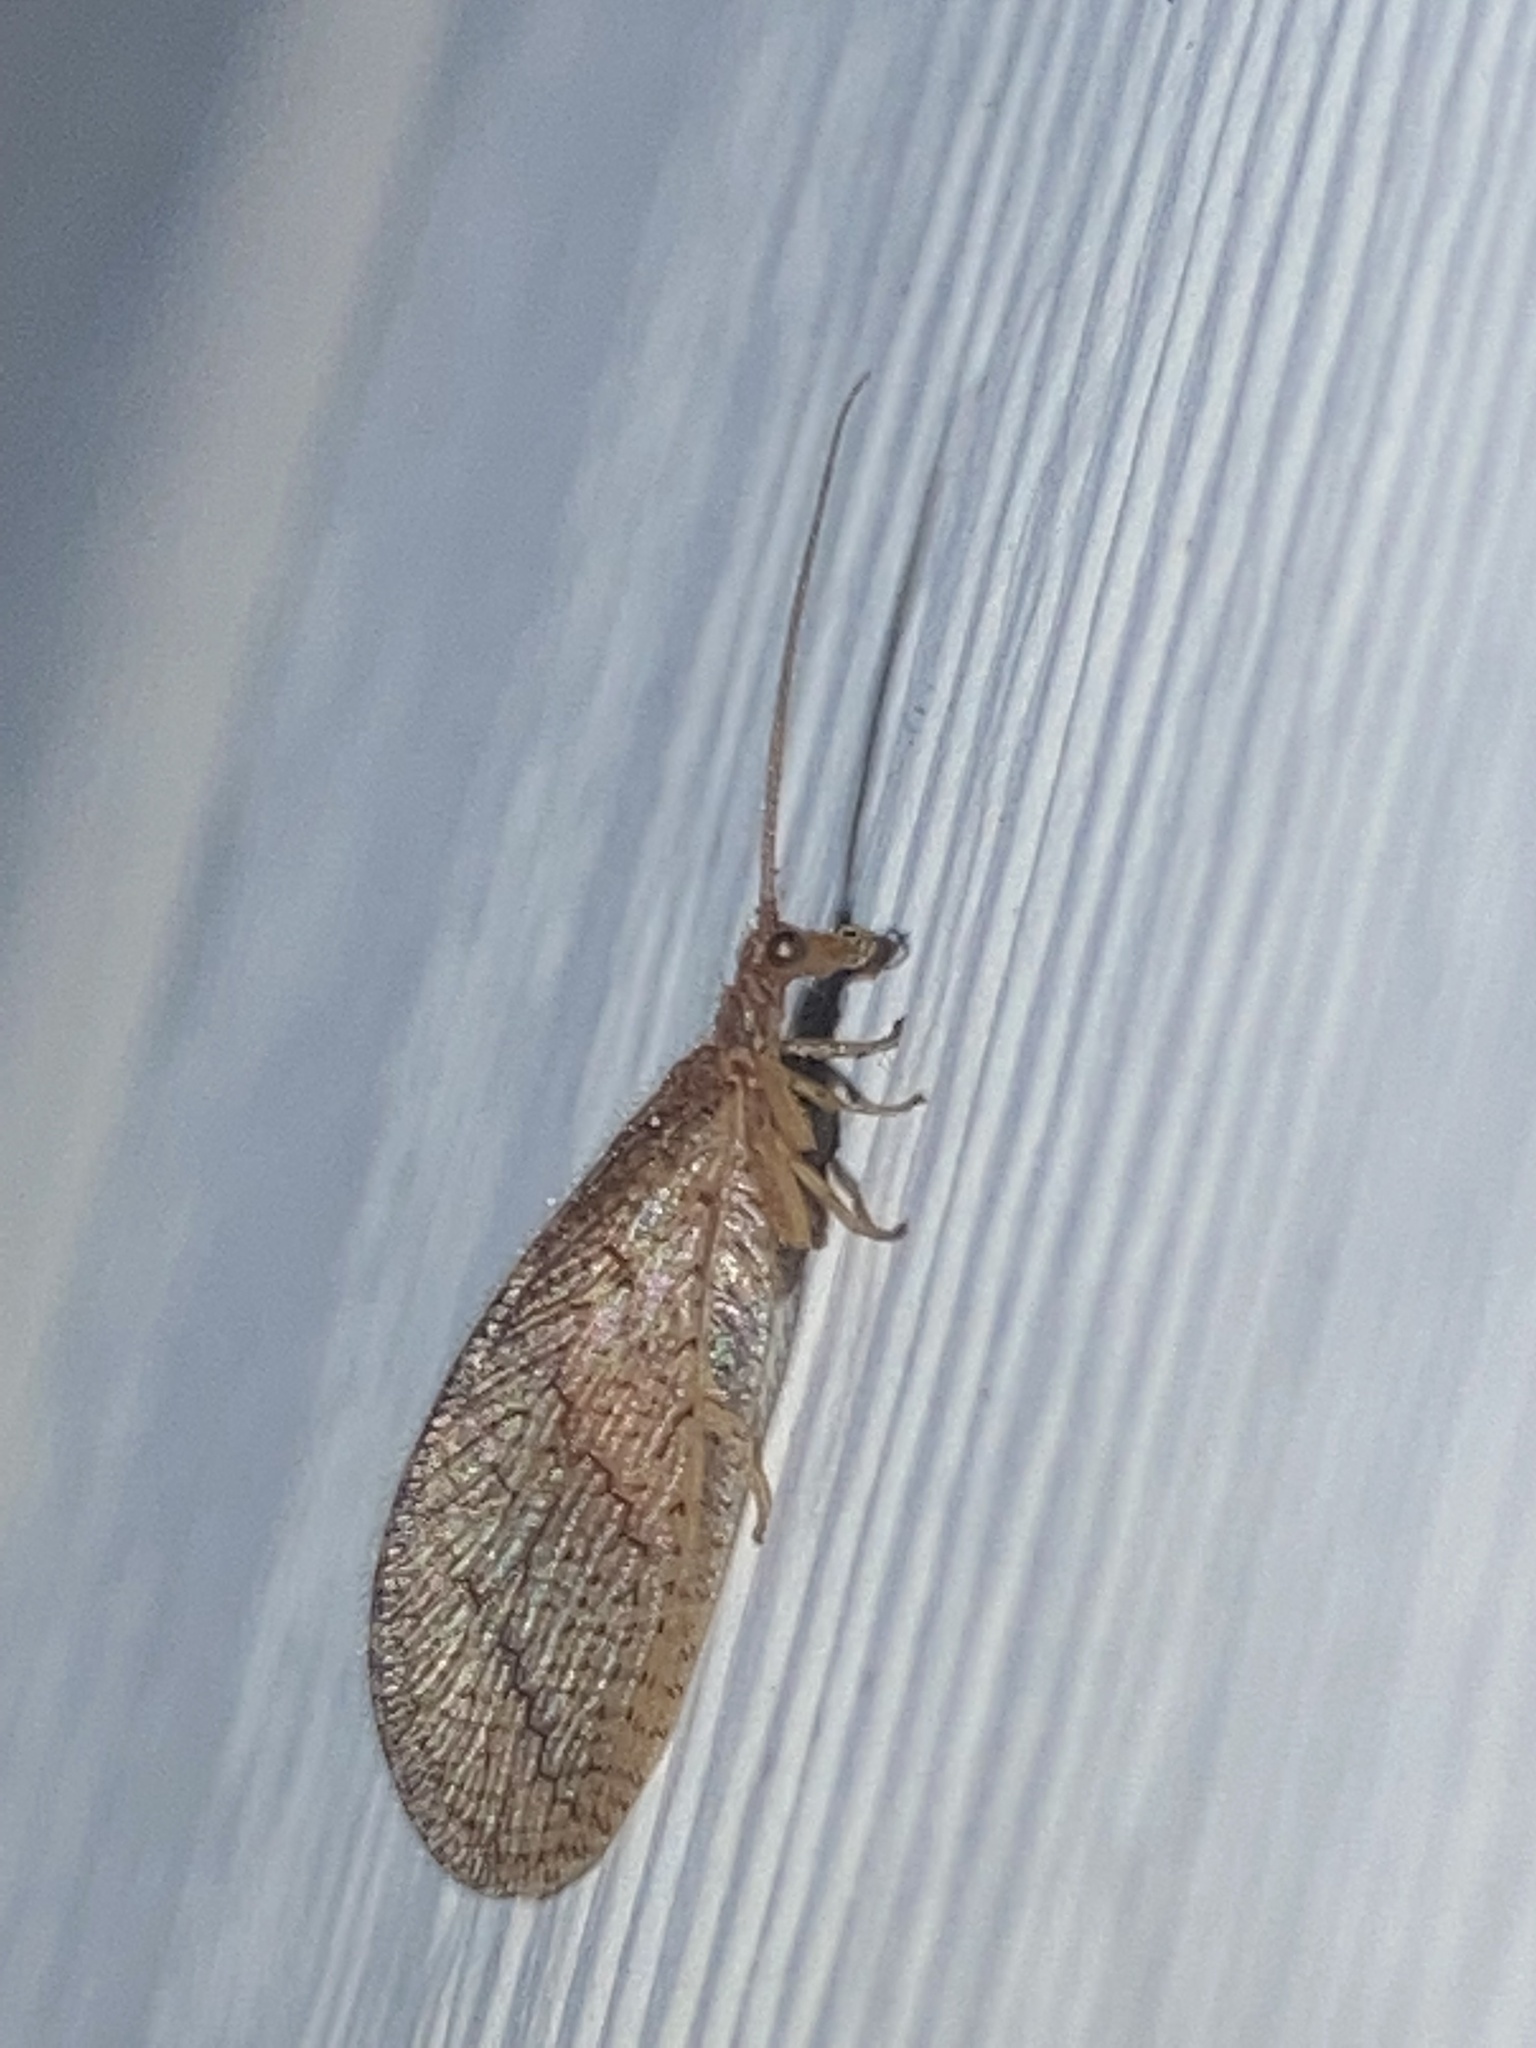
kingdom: Animalia
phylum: Arthropoda
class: Insecta
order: Neuroptera
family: Hemerobiidae
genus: Micromus
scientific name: Micromus posticus
